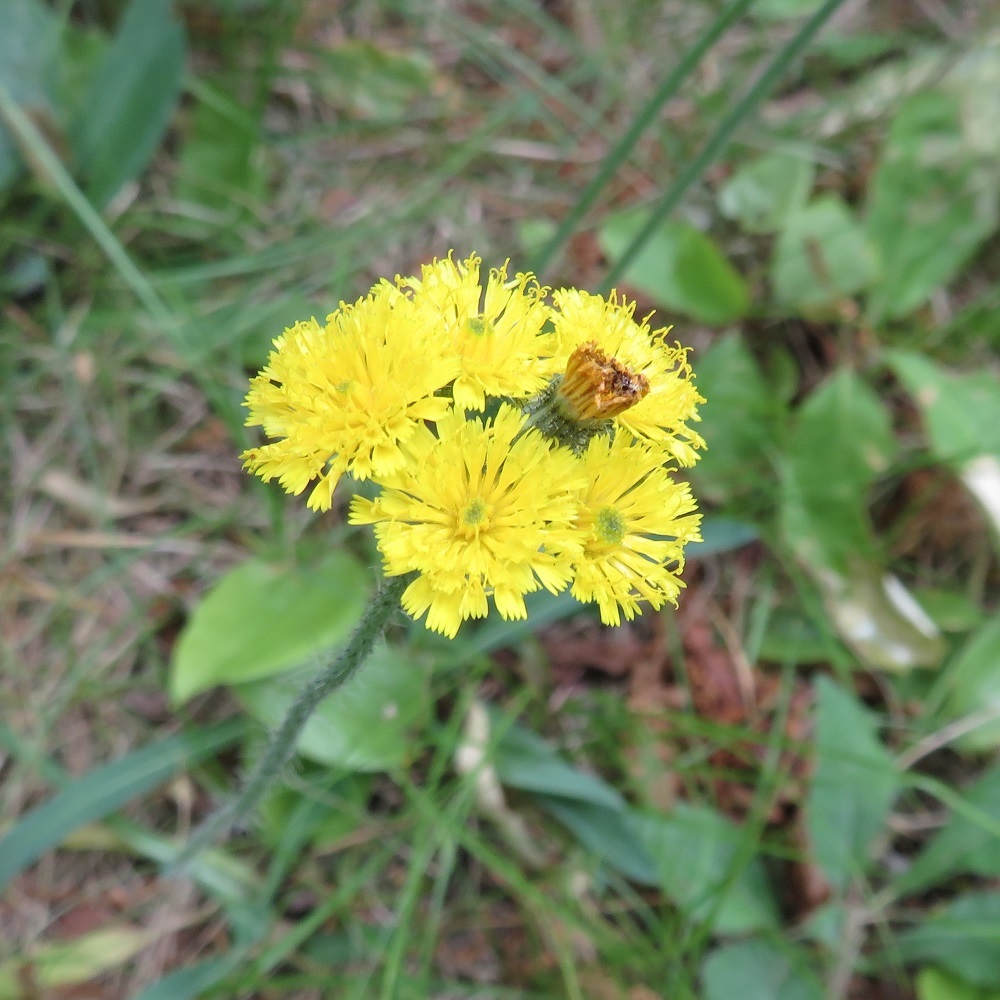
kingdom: Plantae
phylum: Tracheophyta
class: Magnoliopsida
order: Asterales
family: Asteraceae
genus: Pilosella
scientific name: Pilosella piloselloides
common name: Glaucous king-devil
